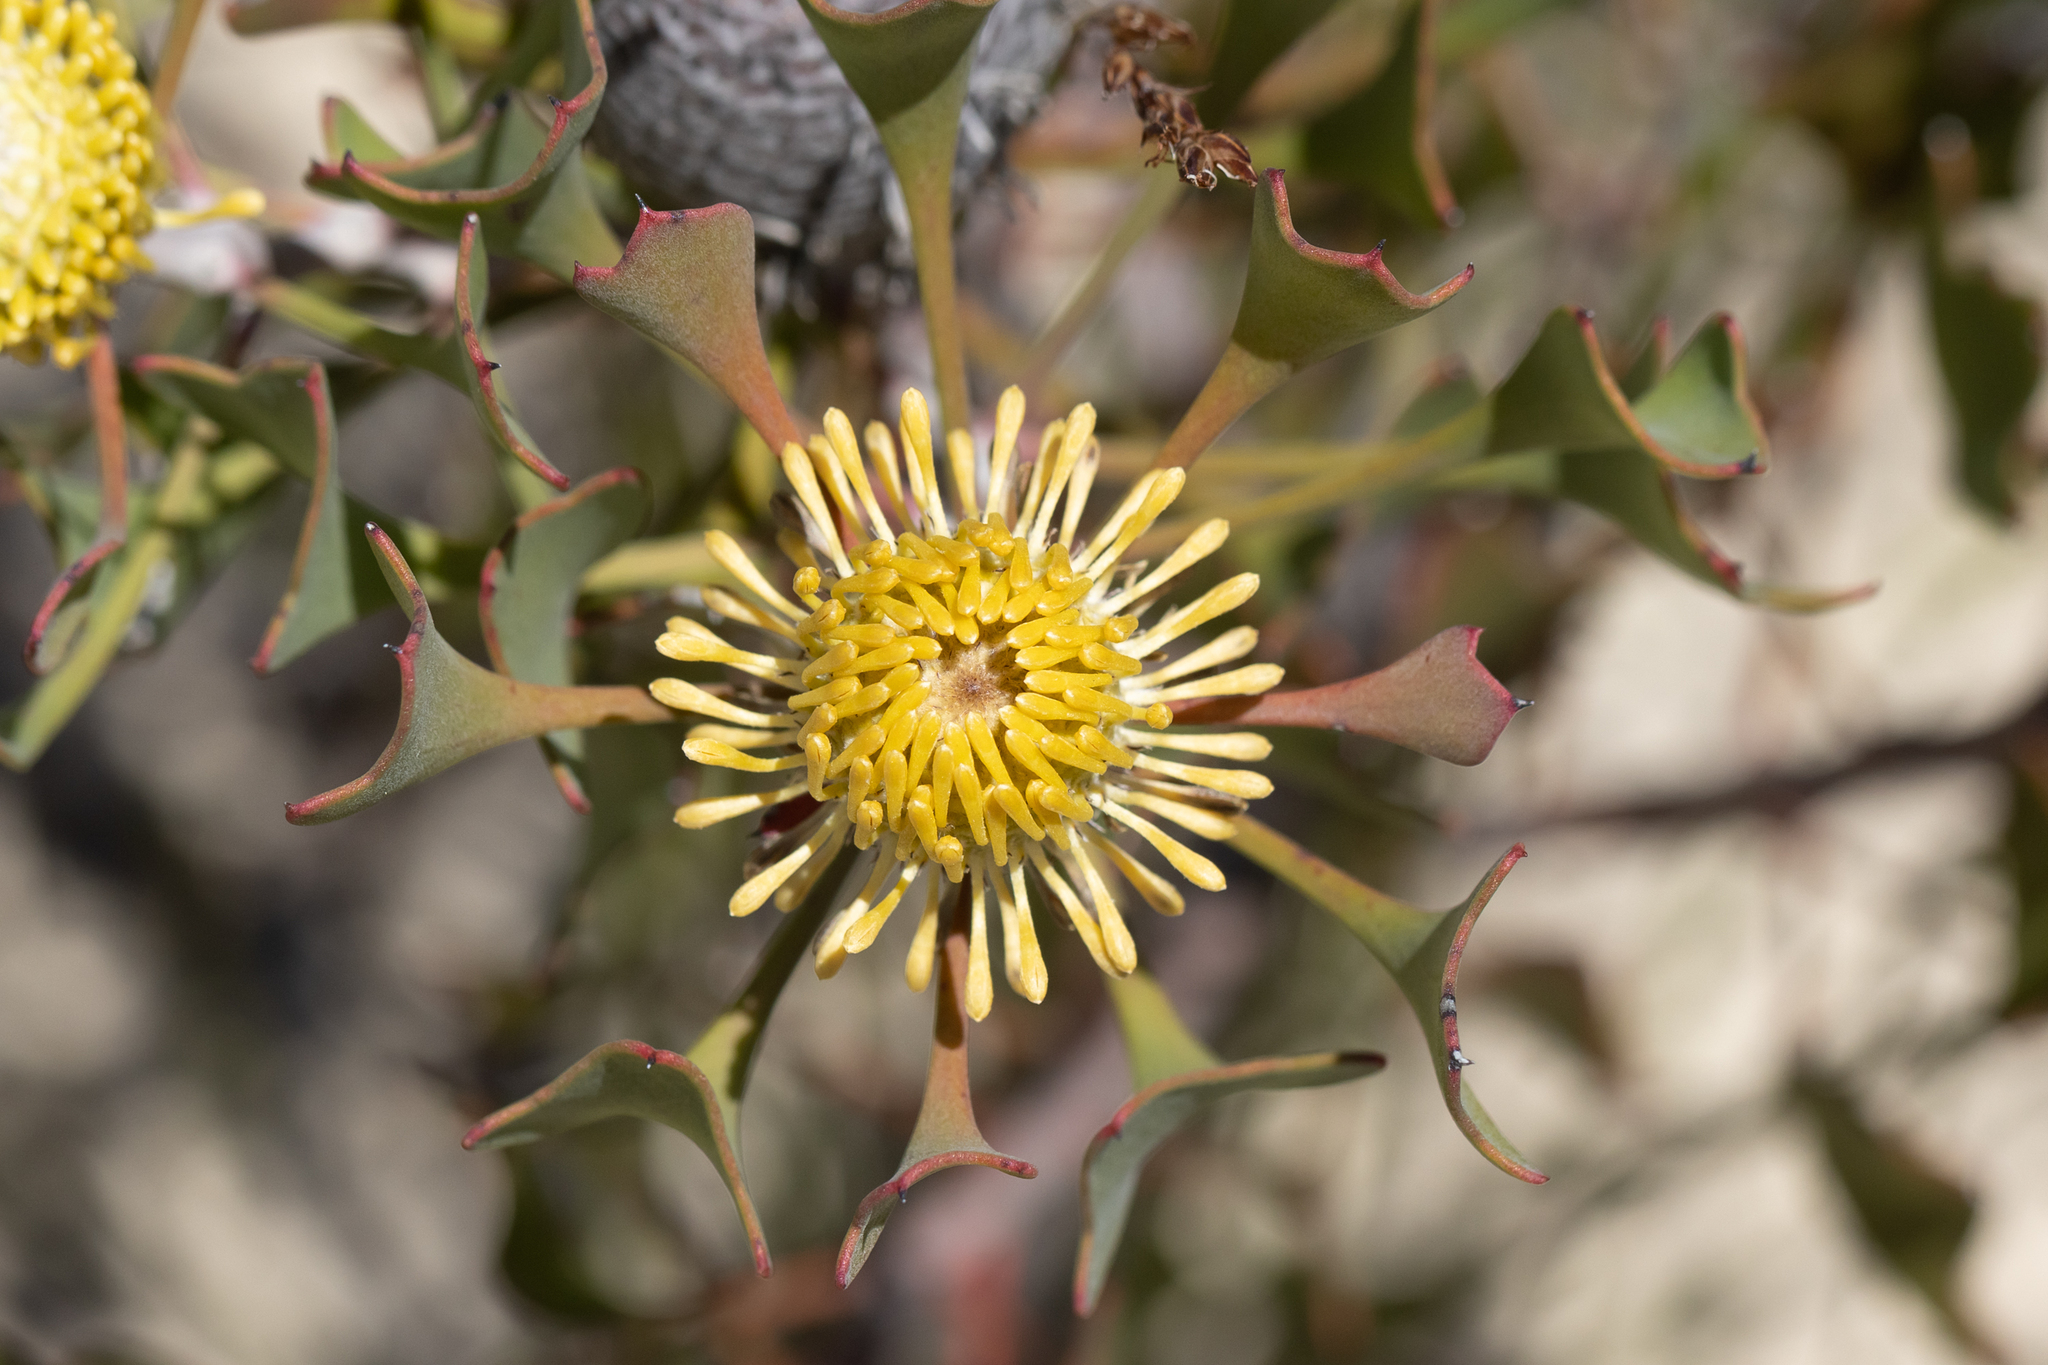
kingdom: Plantae
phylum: Tracheophyta
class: Magnoliopsida
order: Proteales
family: Proteaceae
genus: Isopogon
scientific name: Isopogon trilobus
